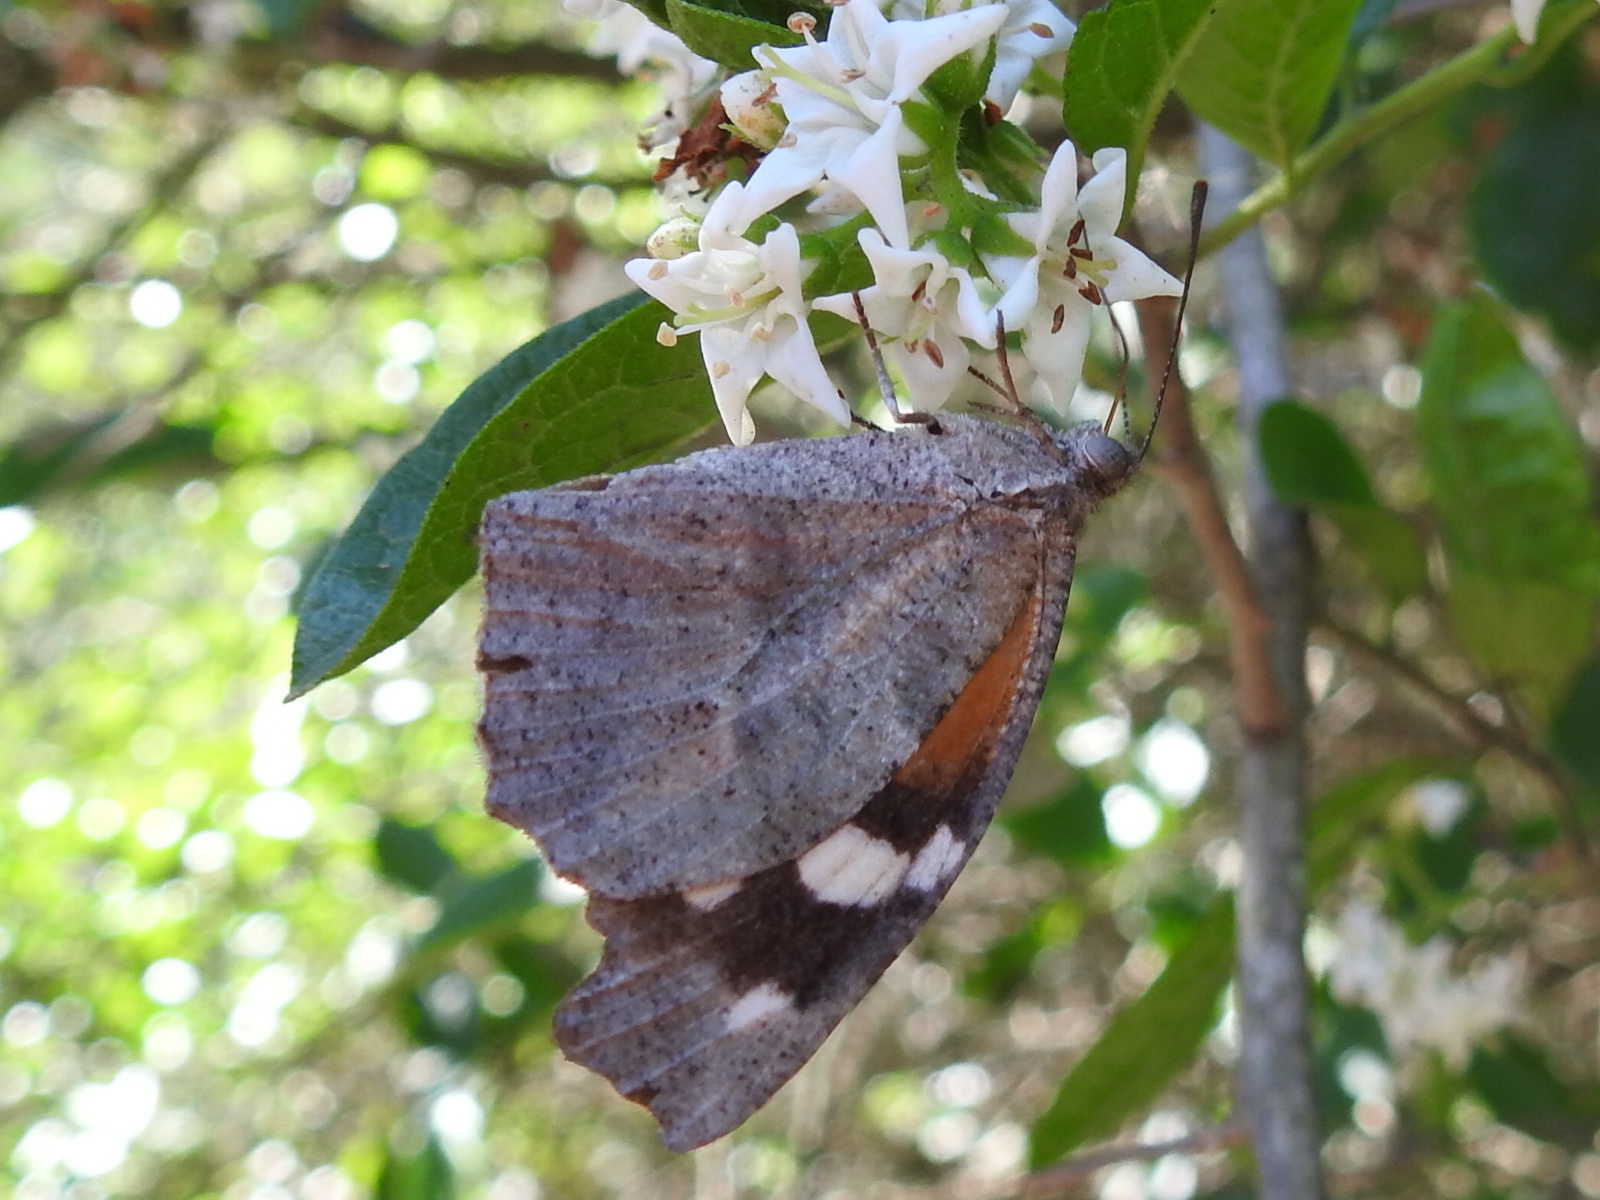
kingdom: Animalia
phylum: Arthropoda
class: Insecta
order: Lepidoptera
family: Nymphalidae
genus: Libytheana
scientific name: Libytheana carinenta
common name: American snout
